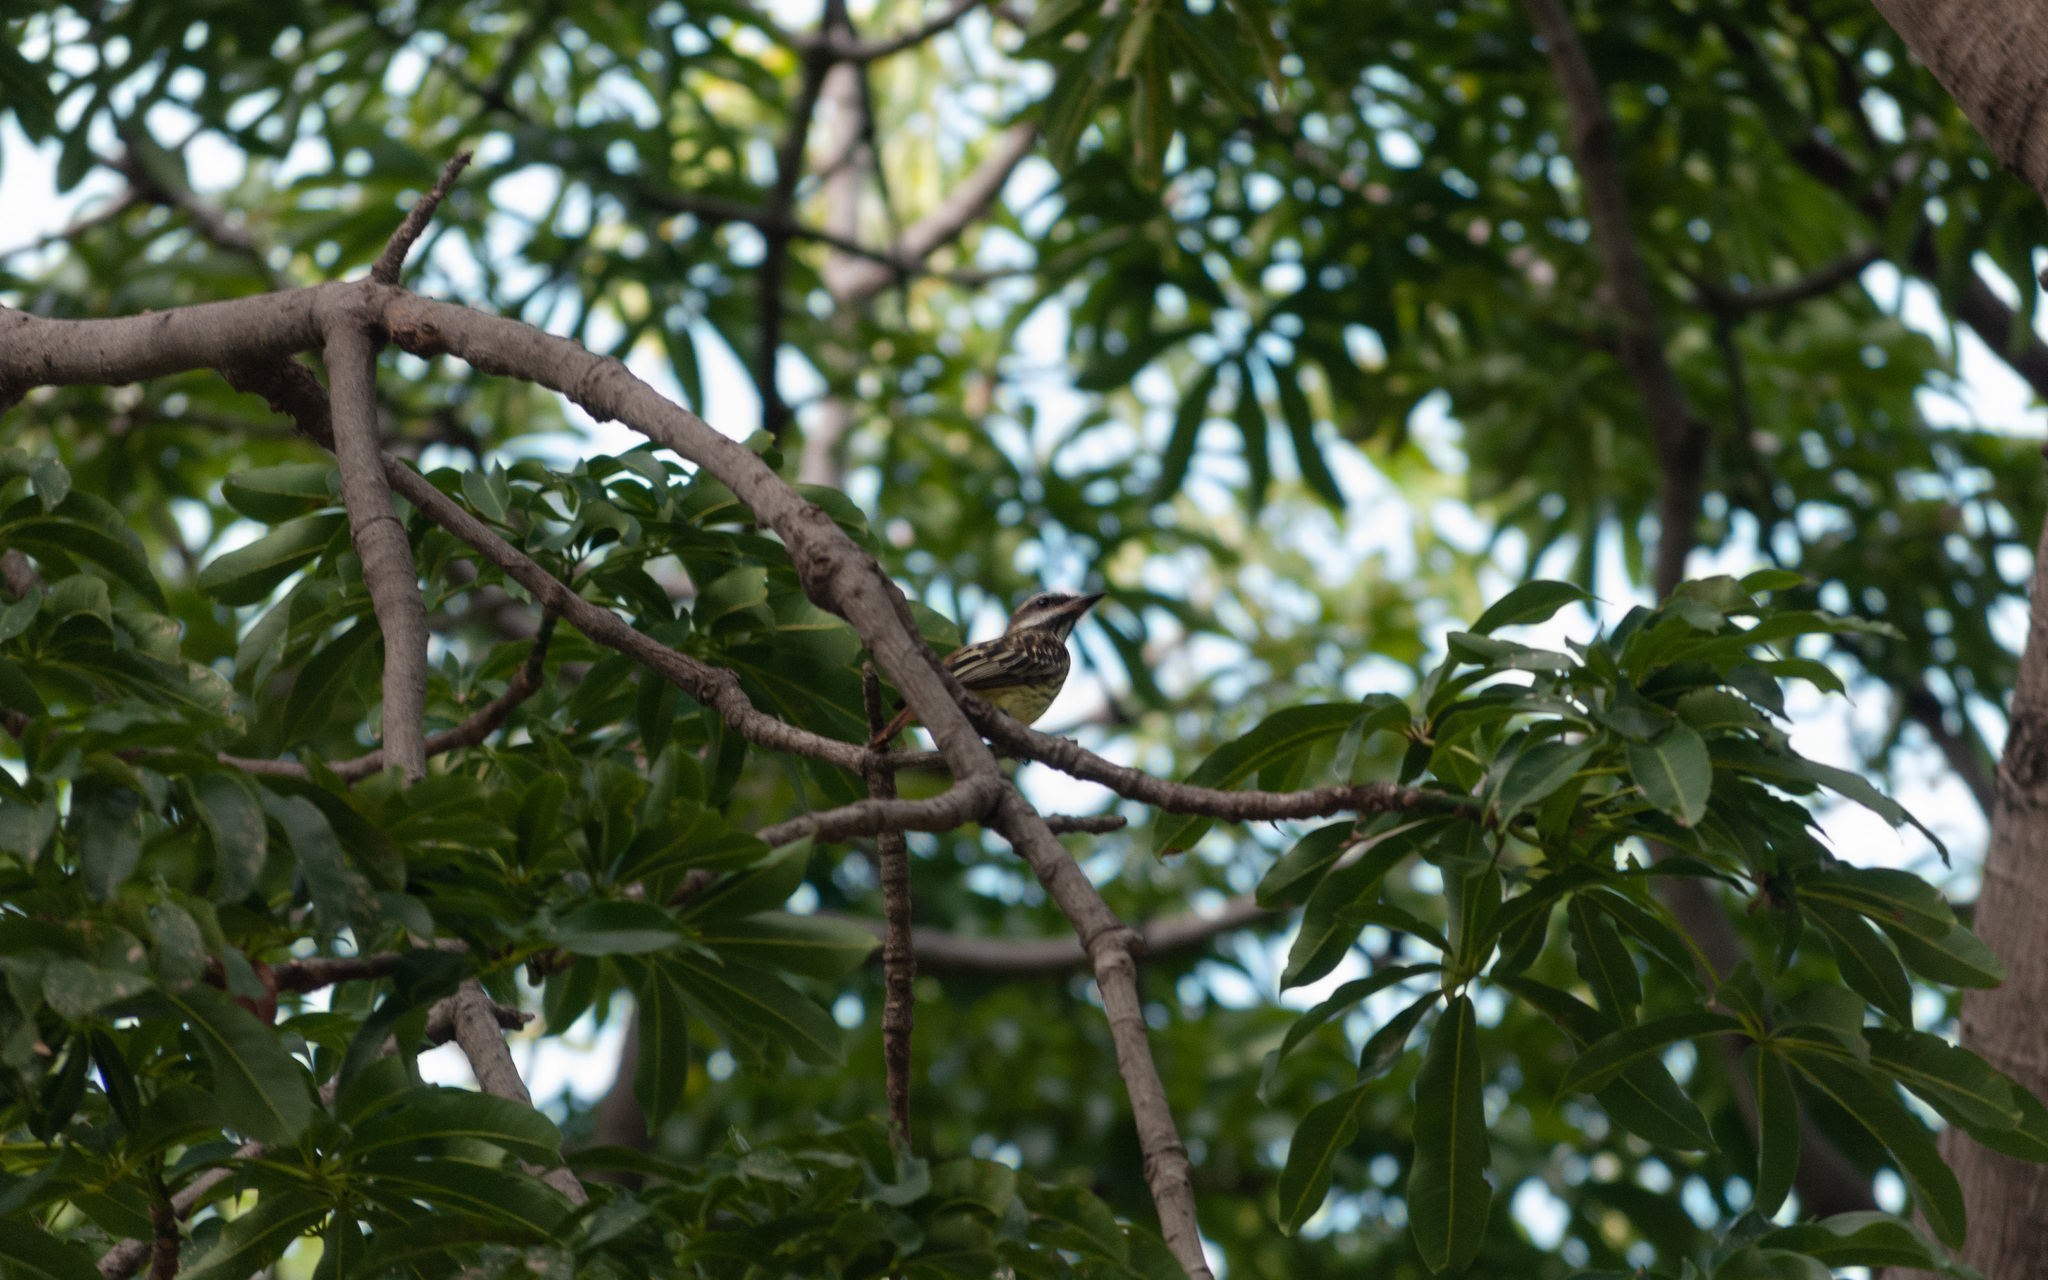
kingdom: Animalia
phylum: Chordata
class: Aves
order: Passeriformes
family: Tyrannidae
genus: Myiodynastes
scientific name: Myiodynastes luteiventris
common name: Sulphur-bellied flycatcher
